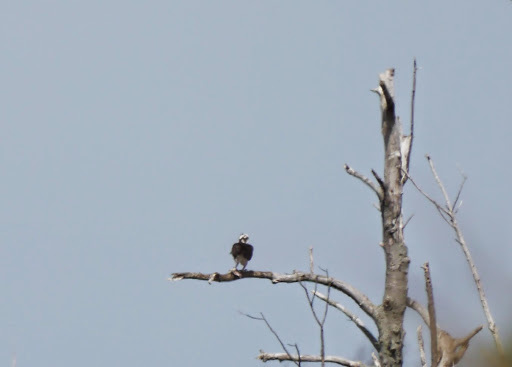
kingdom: Animalia
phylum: Chordata
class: Aves
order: Accipitriformes
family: Pandionidae
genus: Pandion
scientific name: Pandion haliaetus
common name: Osprey
